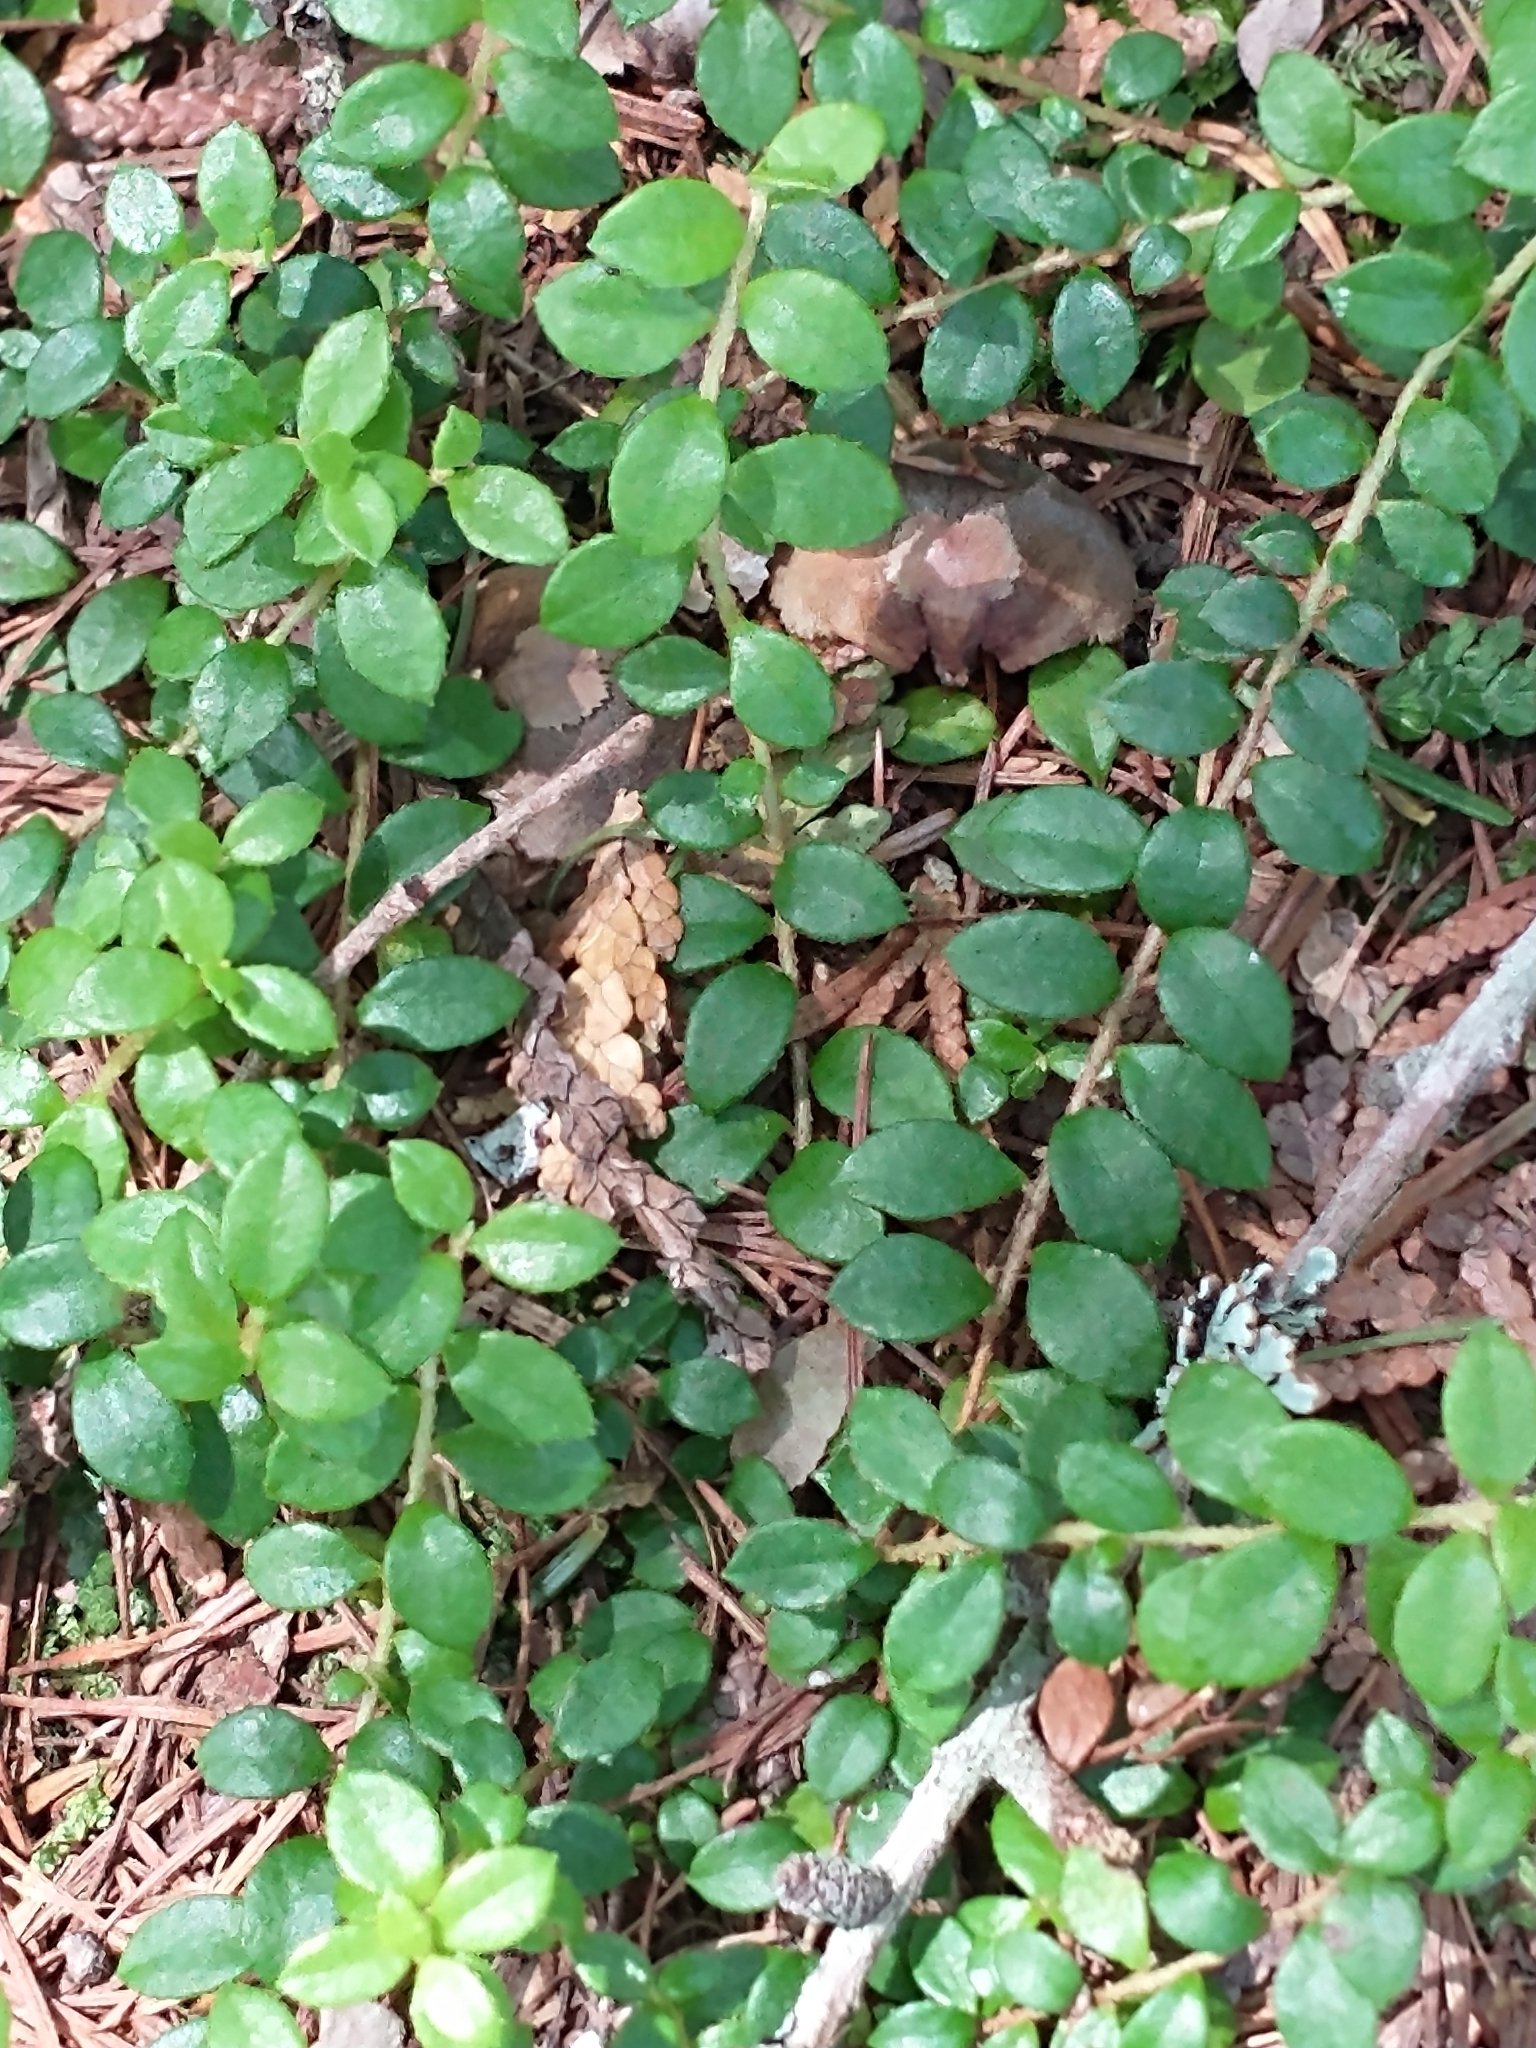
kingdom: Plantae
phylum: Tracheophyta
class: Magnoliopsida
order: Ericales
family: Ericaceae
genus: Gaultheria
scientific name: Gaultheria hispidula
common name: Cancer wintergreen
